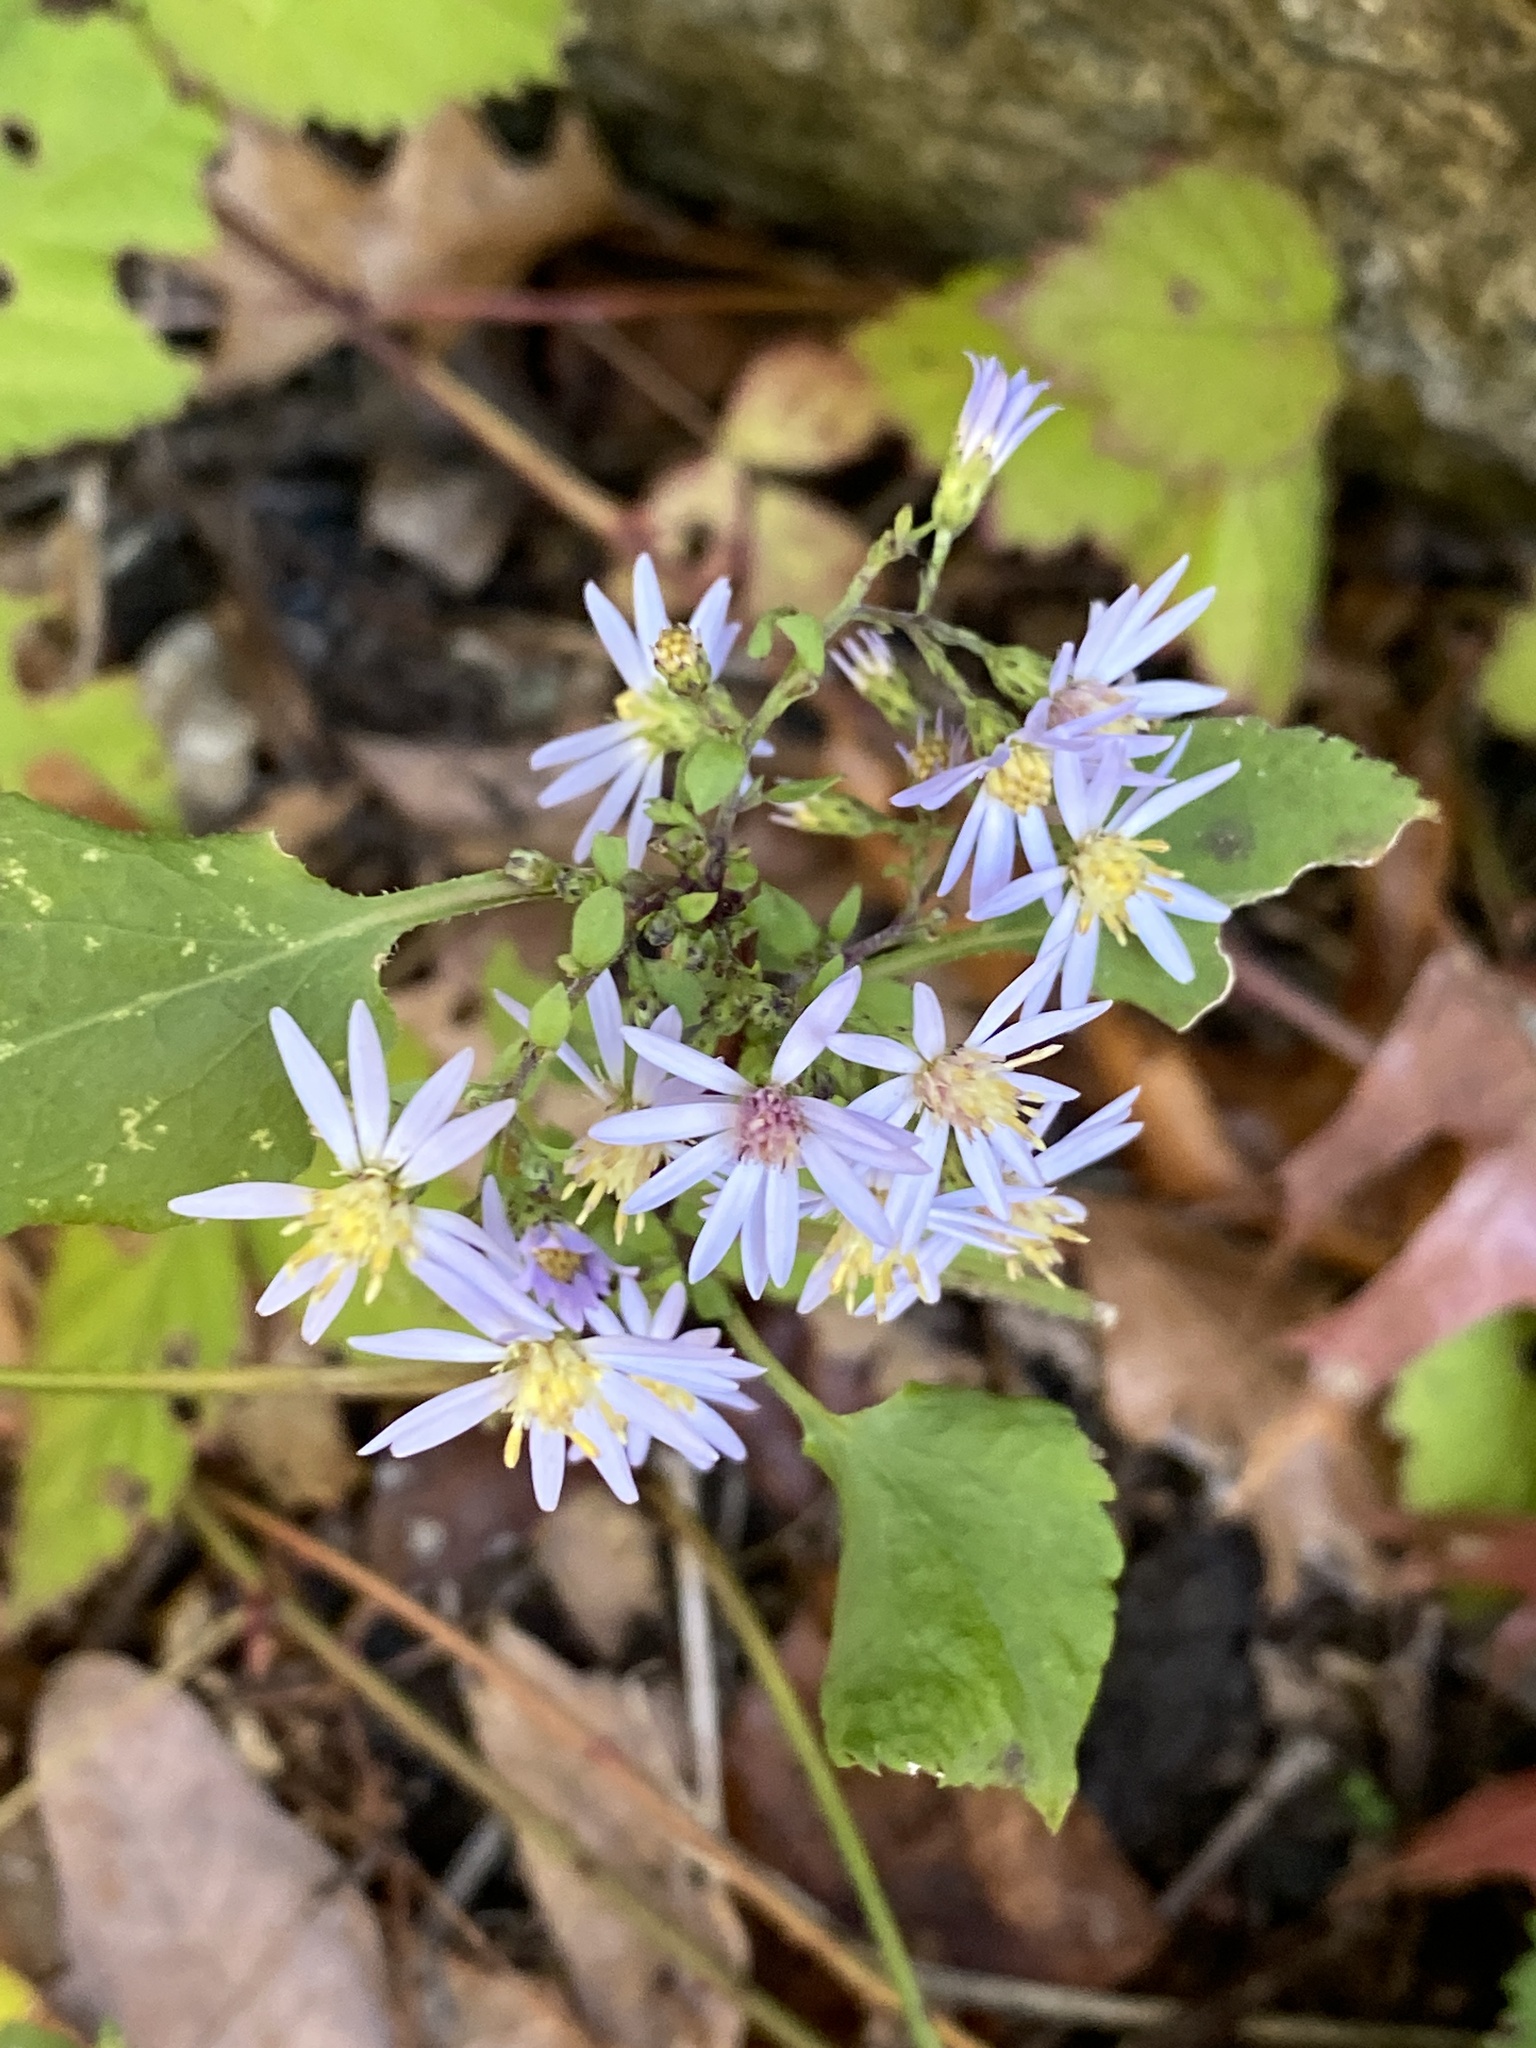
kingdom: Plantae
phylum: Tracheophyta
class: Magnoliopsida
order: Asterales
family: Asteraceae
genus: Symphyotrichum
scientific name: Symphyotrichum cordifolium
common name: Beeweed
